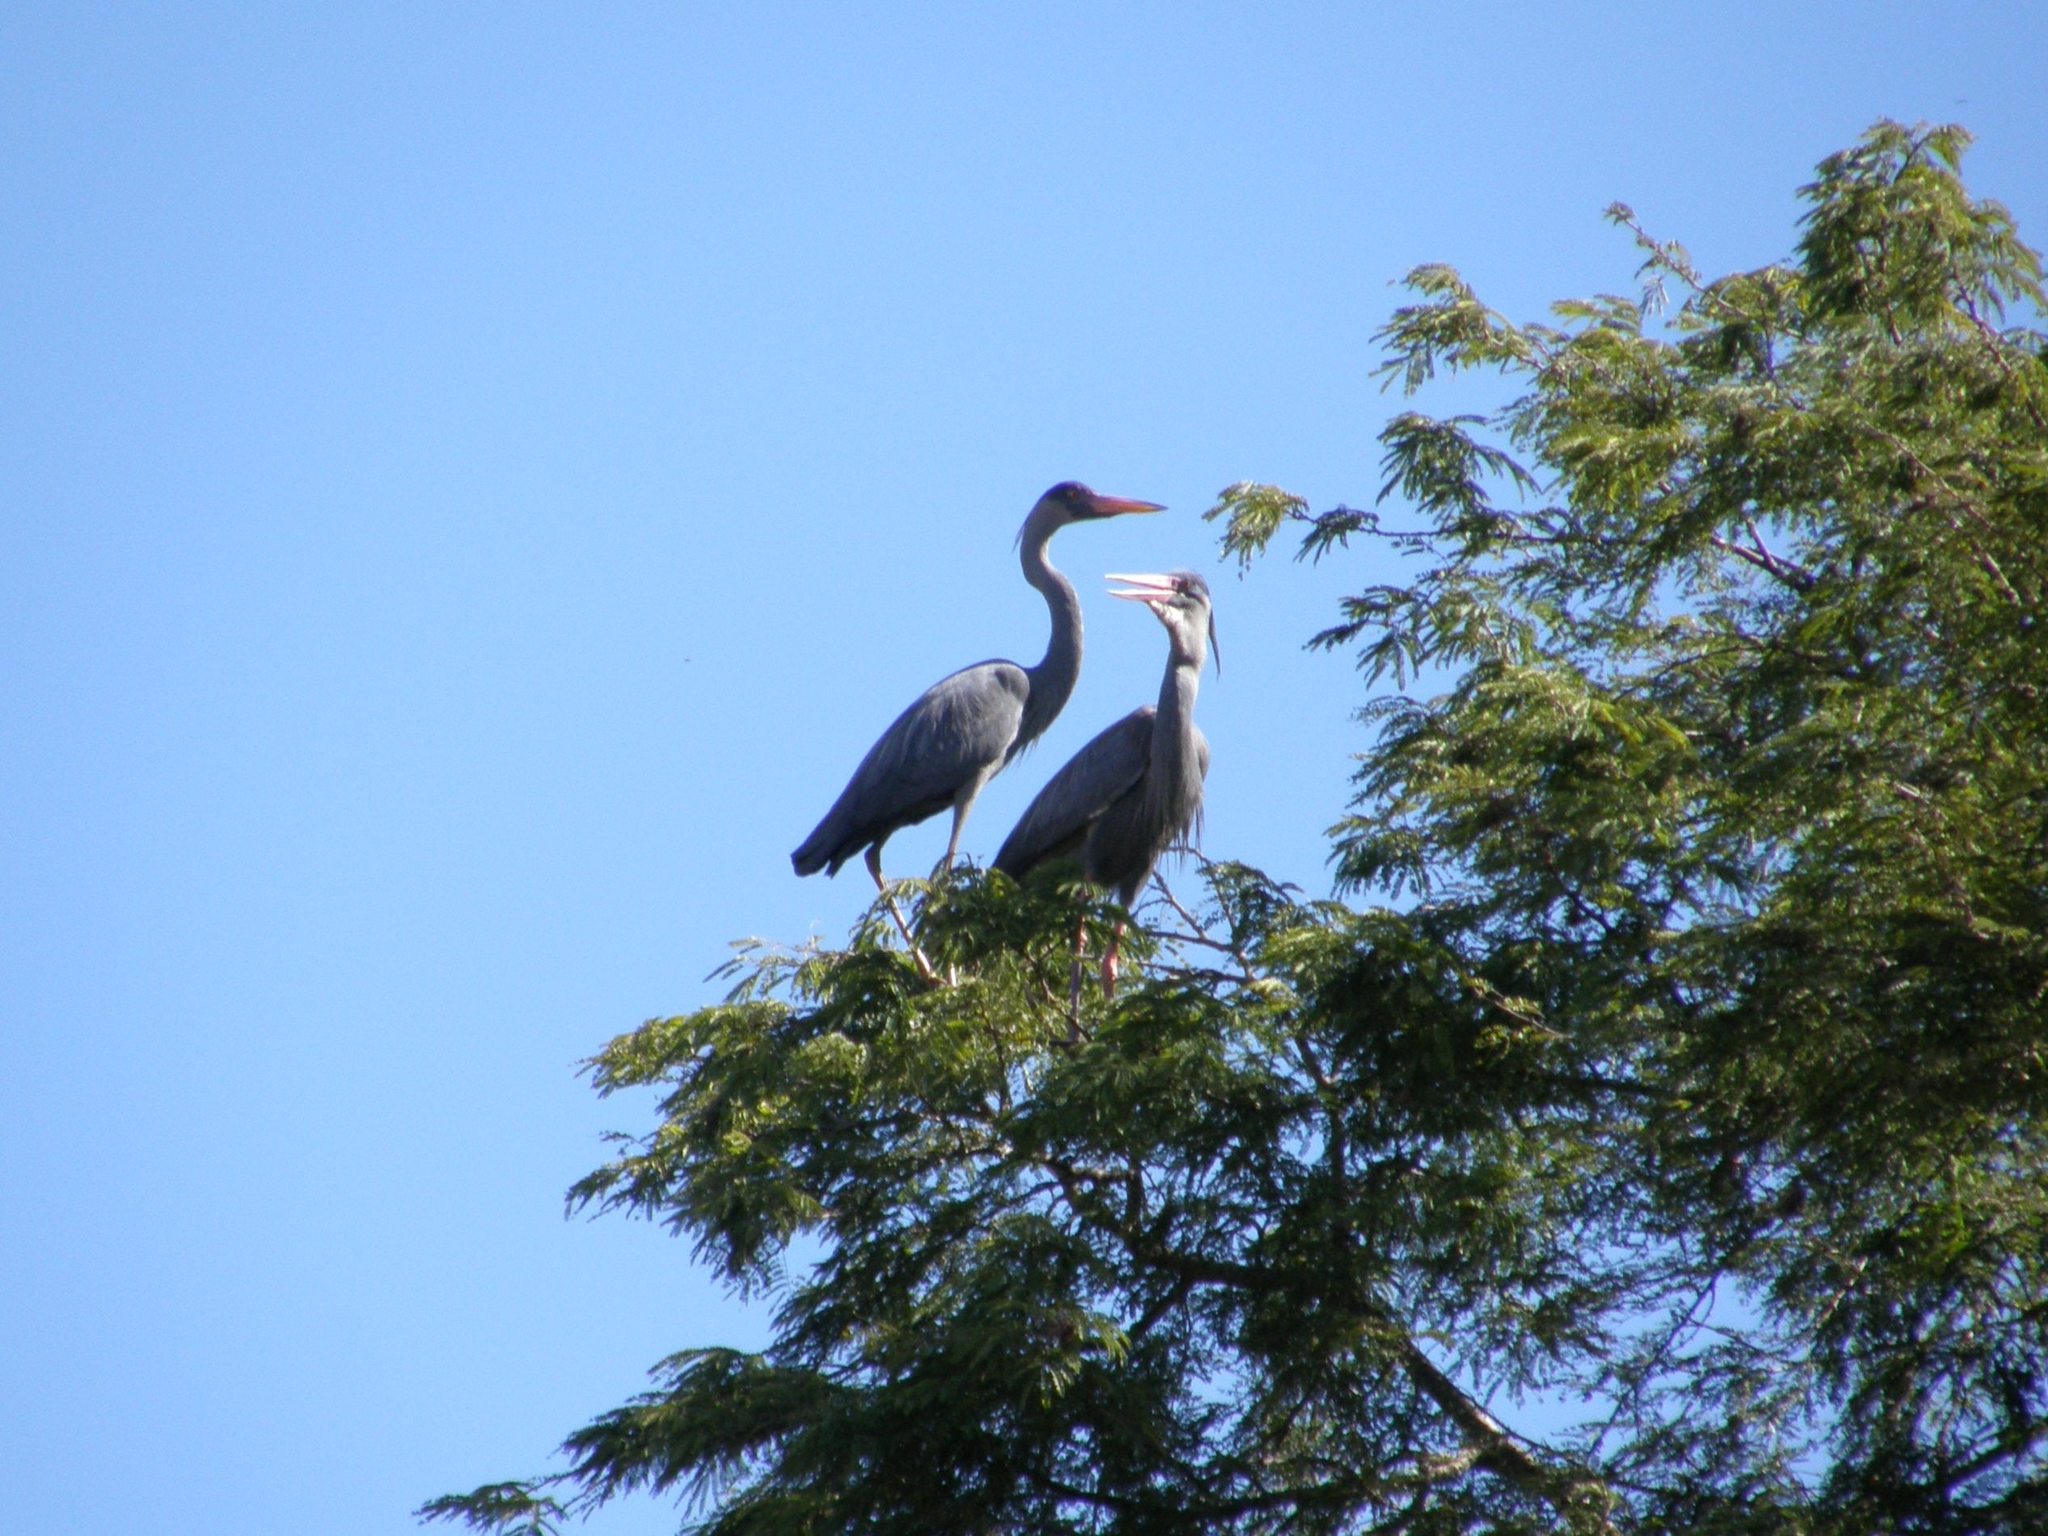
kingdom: Animalia
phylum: Chordata
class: Aves
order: Pelecaniformes
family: Ardeidae
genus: Ardea
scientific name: Ardea humbloti
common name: Humblot's heron
